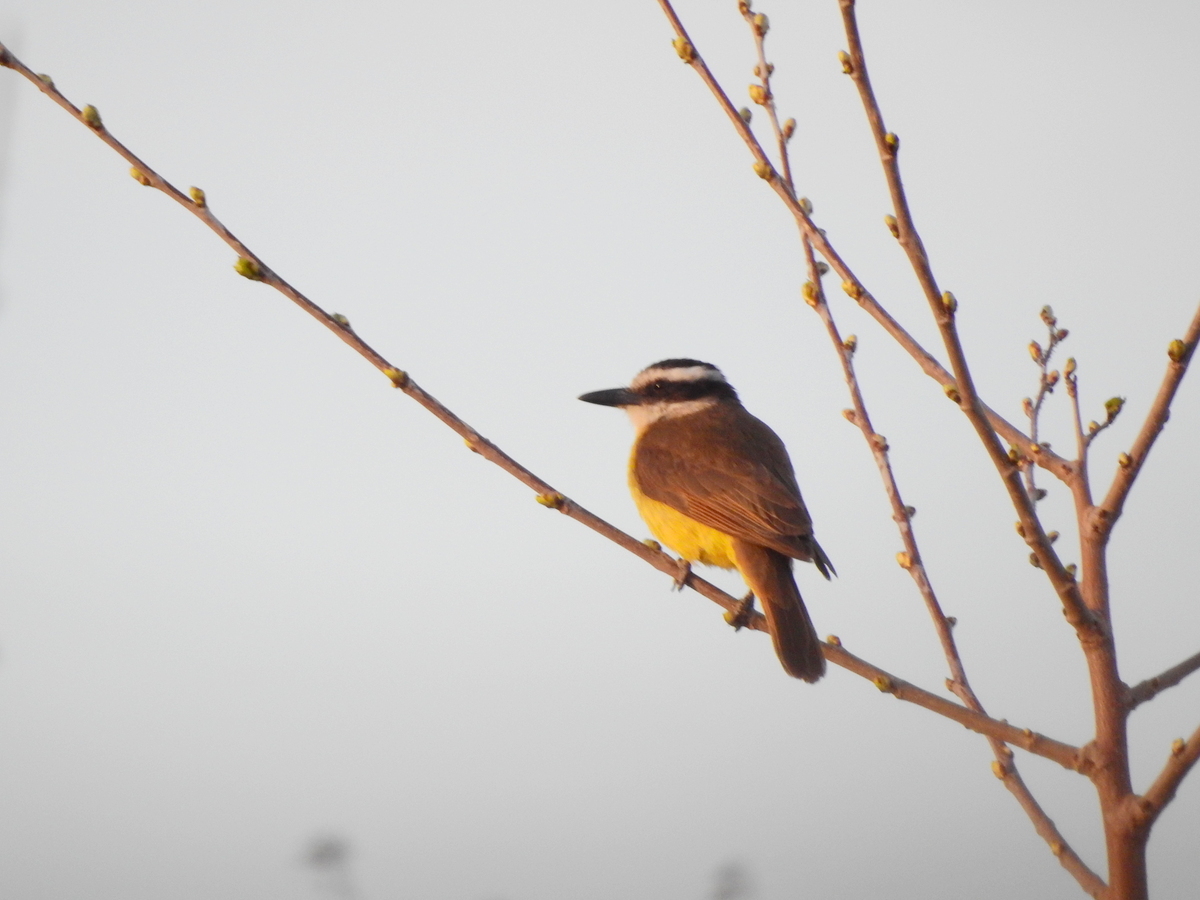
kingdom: Animalia
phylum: Chordata
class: Aves
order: Passeriformes
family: Tyrannidae
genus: Pitangus
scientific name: Pitangus sulphuratus
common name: Great kiskadee
